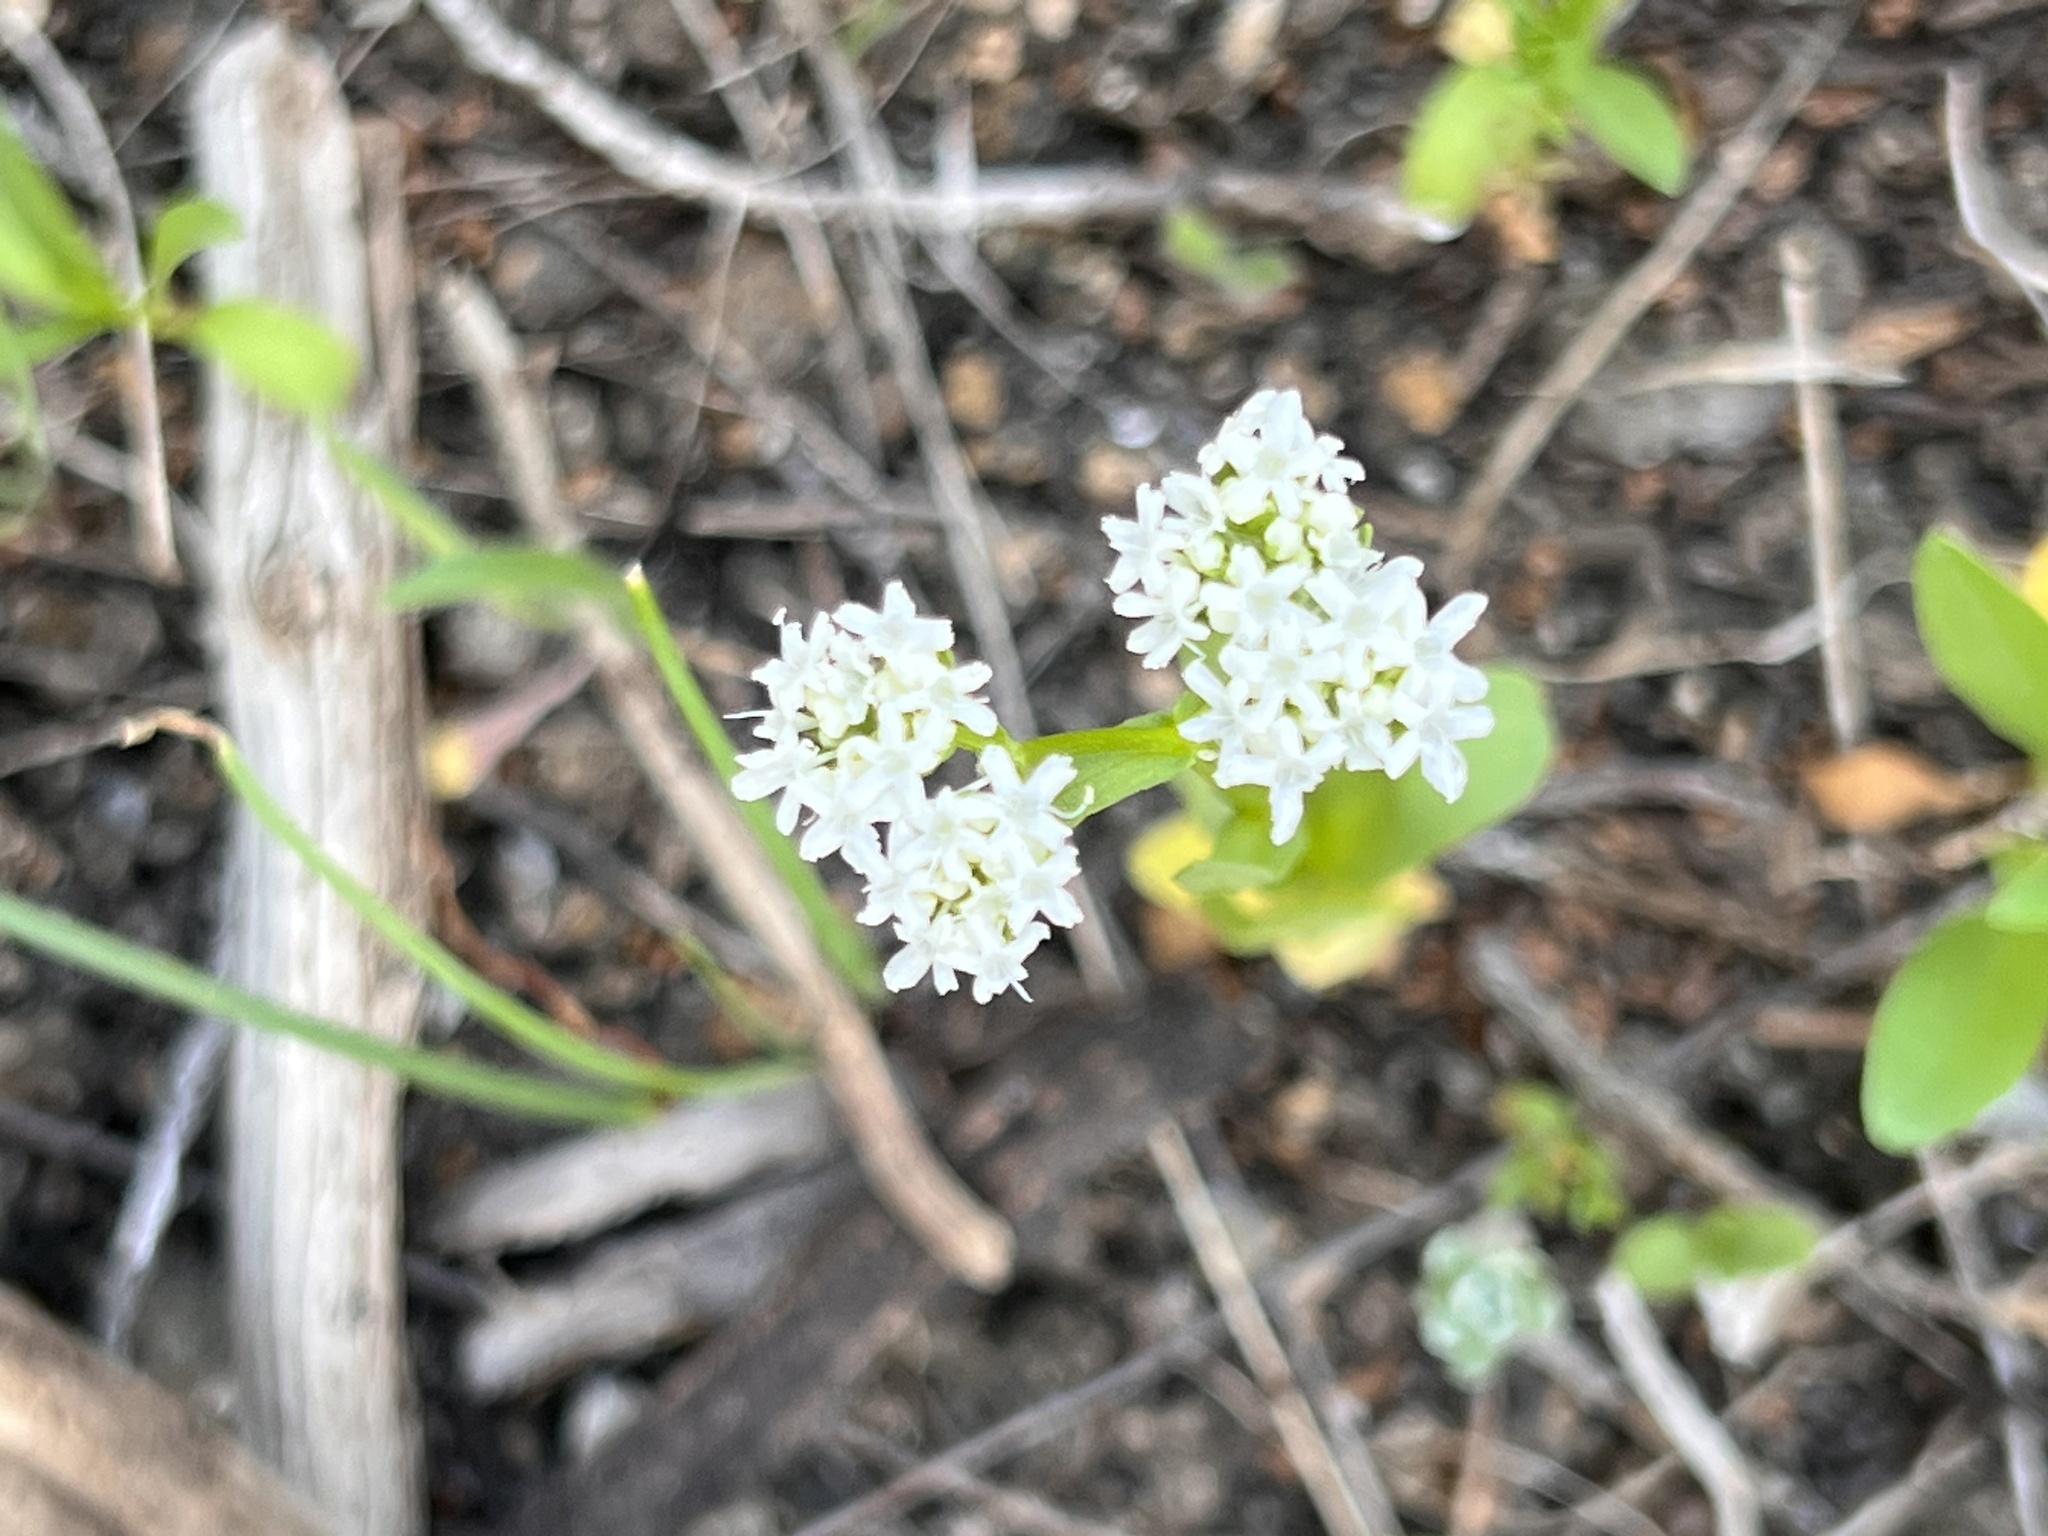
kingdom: Plantae
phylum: Tracheophyta
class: Magnoliopsida
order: Dipsacales
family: Caprifoliaceae
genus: Valerianella
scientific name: Valerianella amarella
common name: Hariy cornsalad
